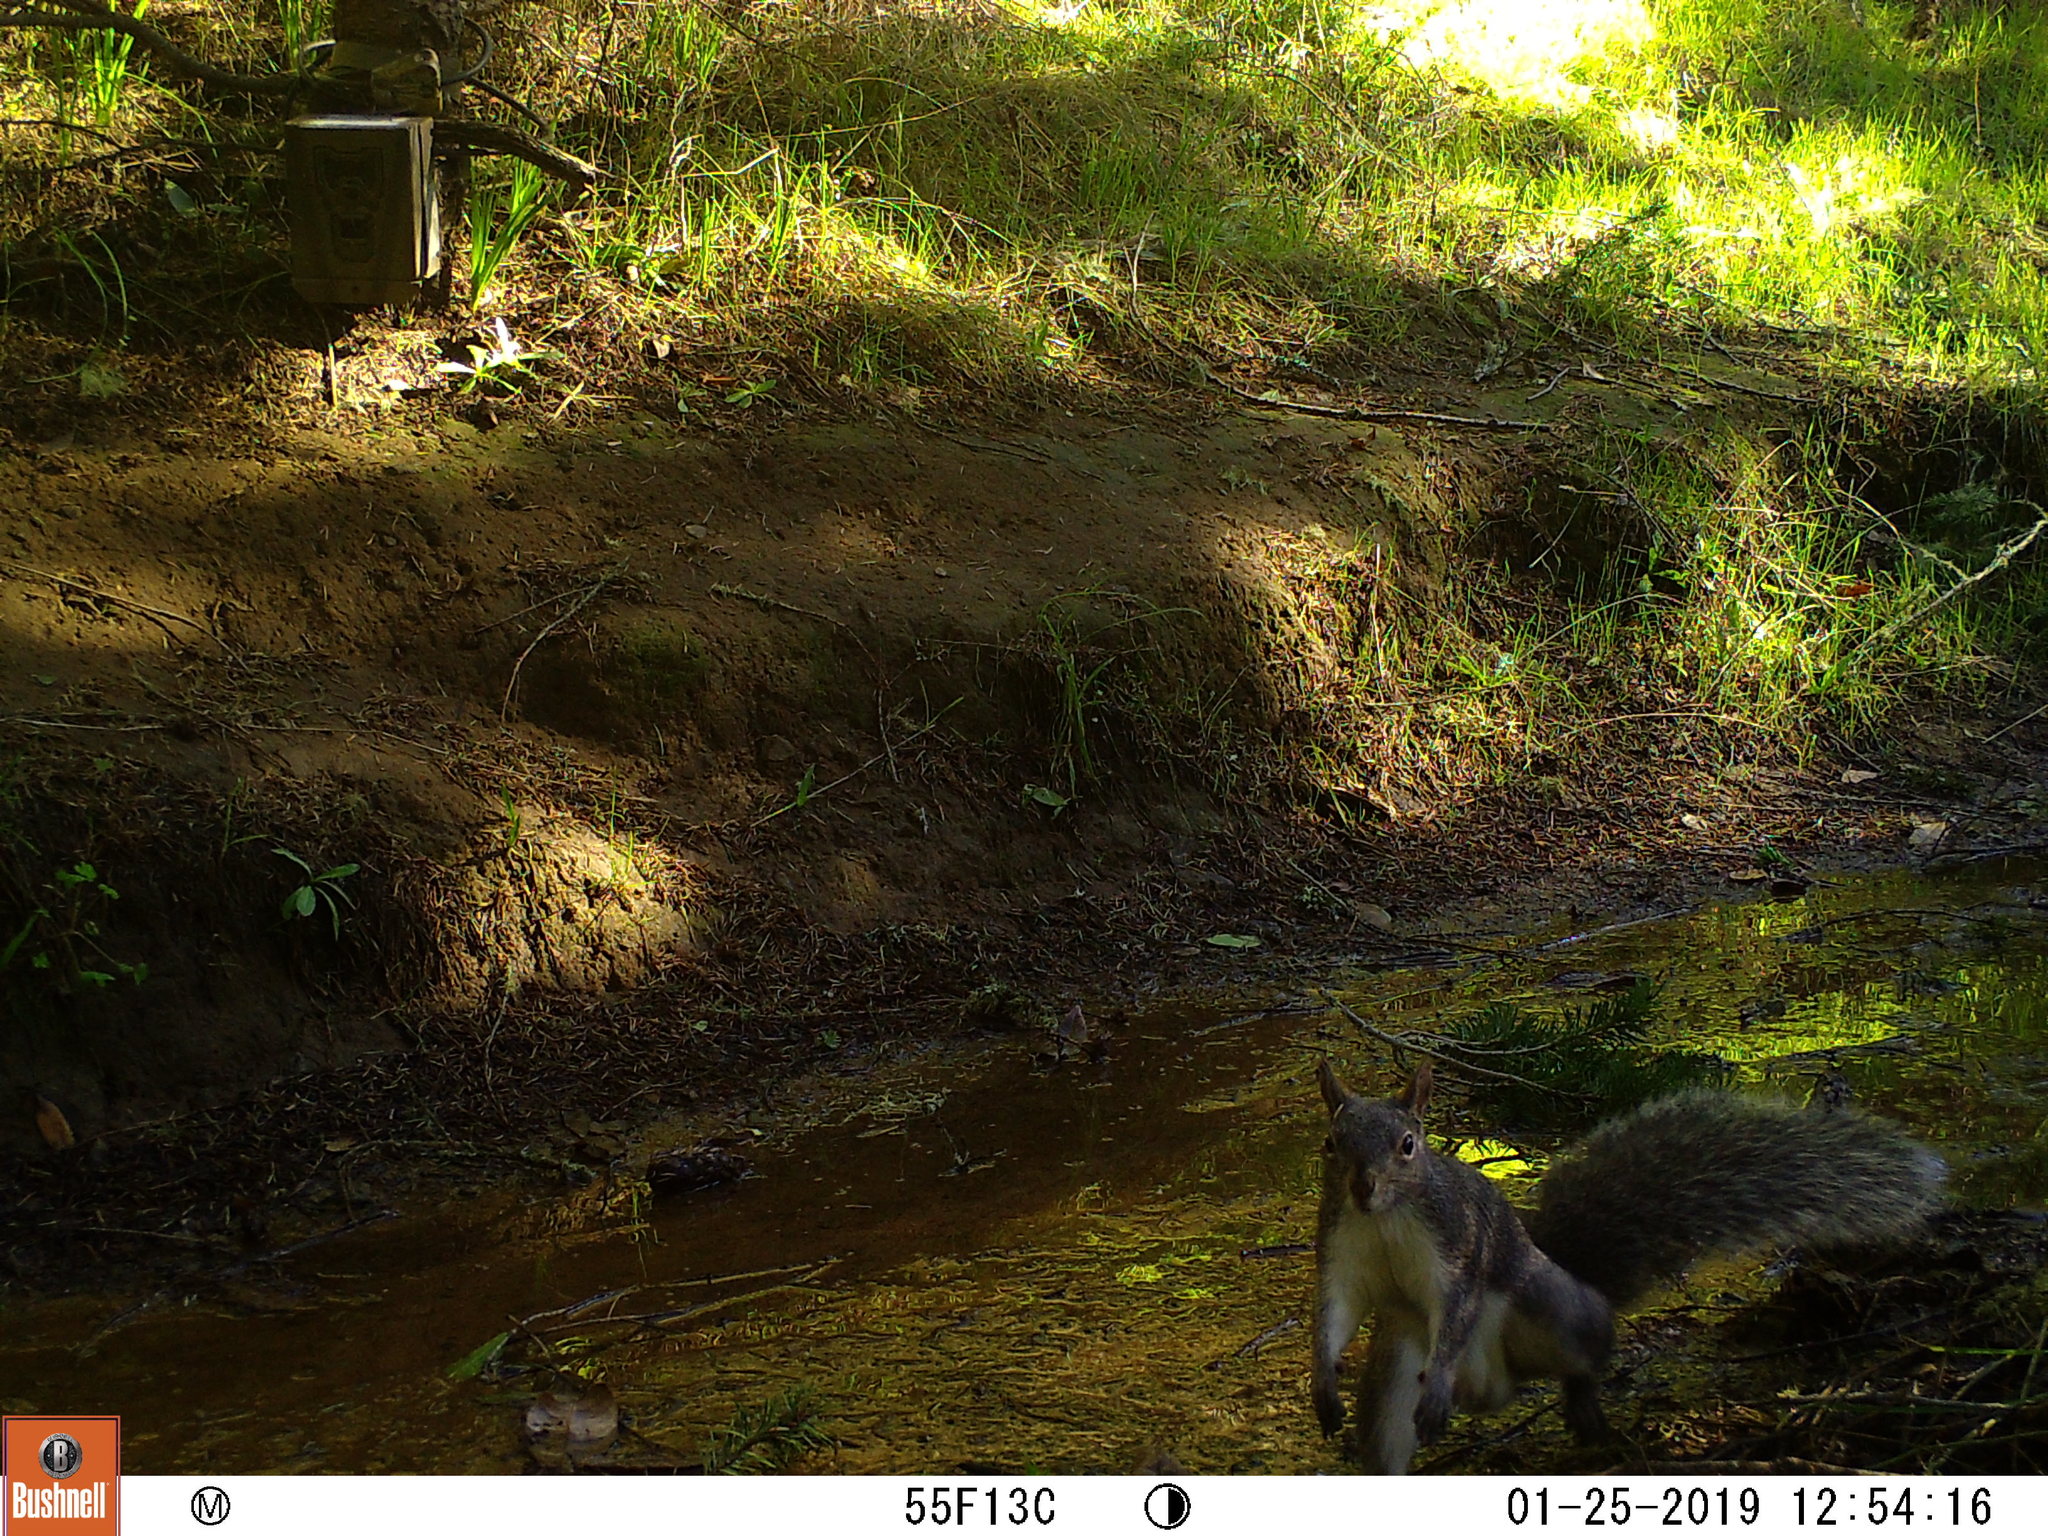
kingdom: Animalia
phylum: Chordata
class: Mammalia
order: Rodentia
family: Sciuridae
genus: Sciurus
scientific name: Sciurus griseus
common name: Western gray squirrel
